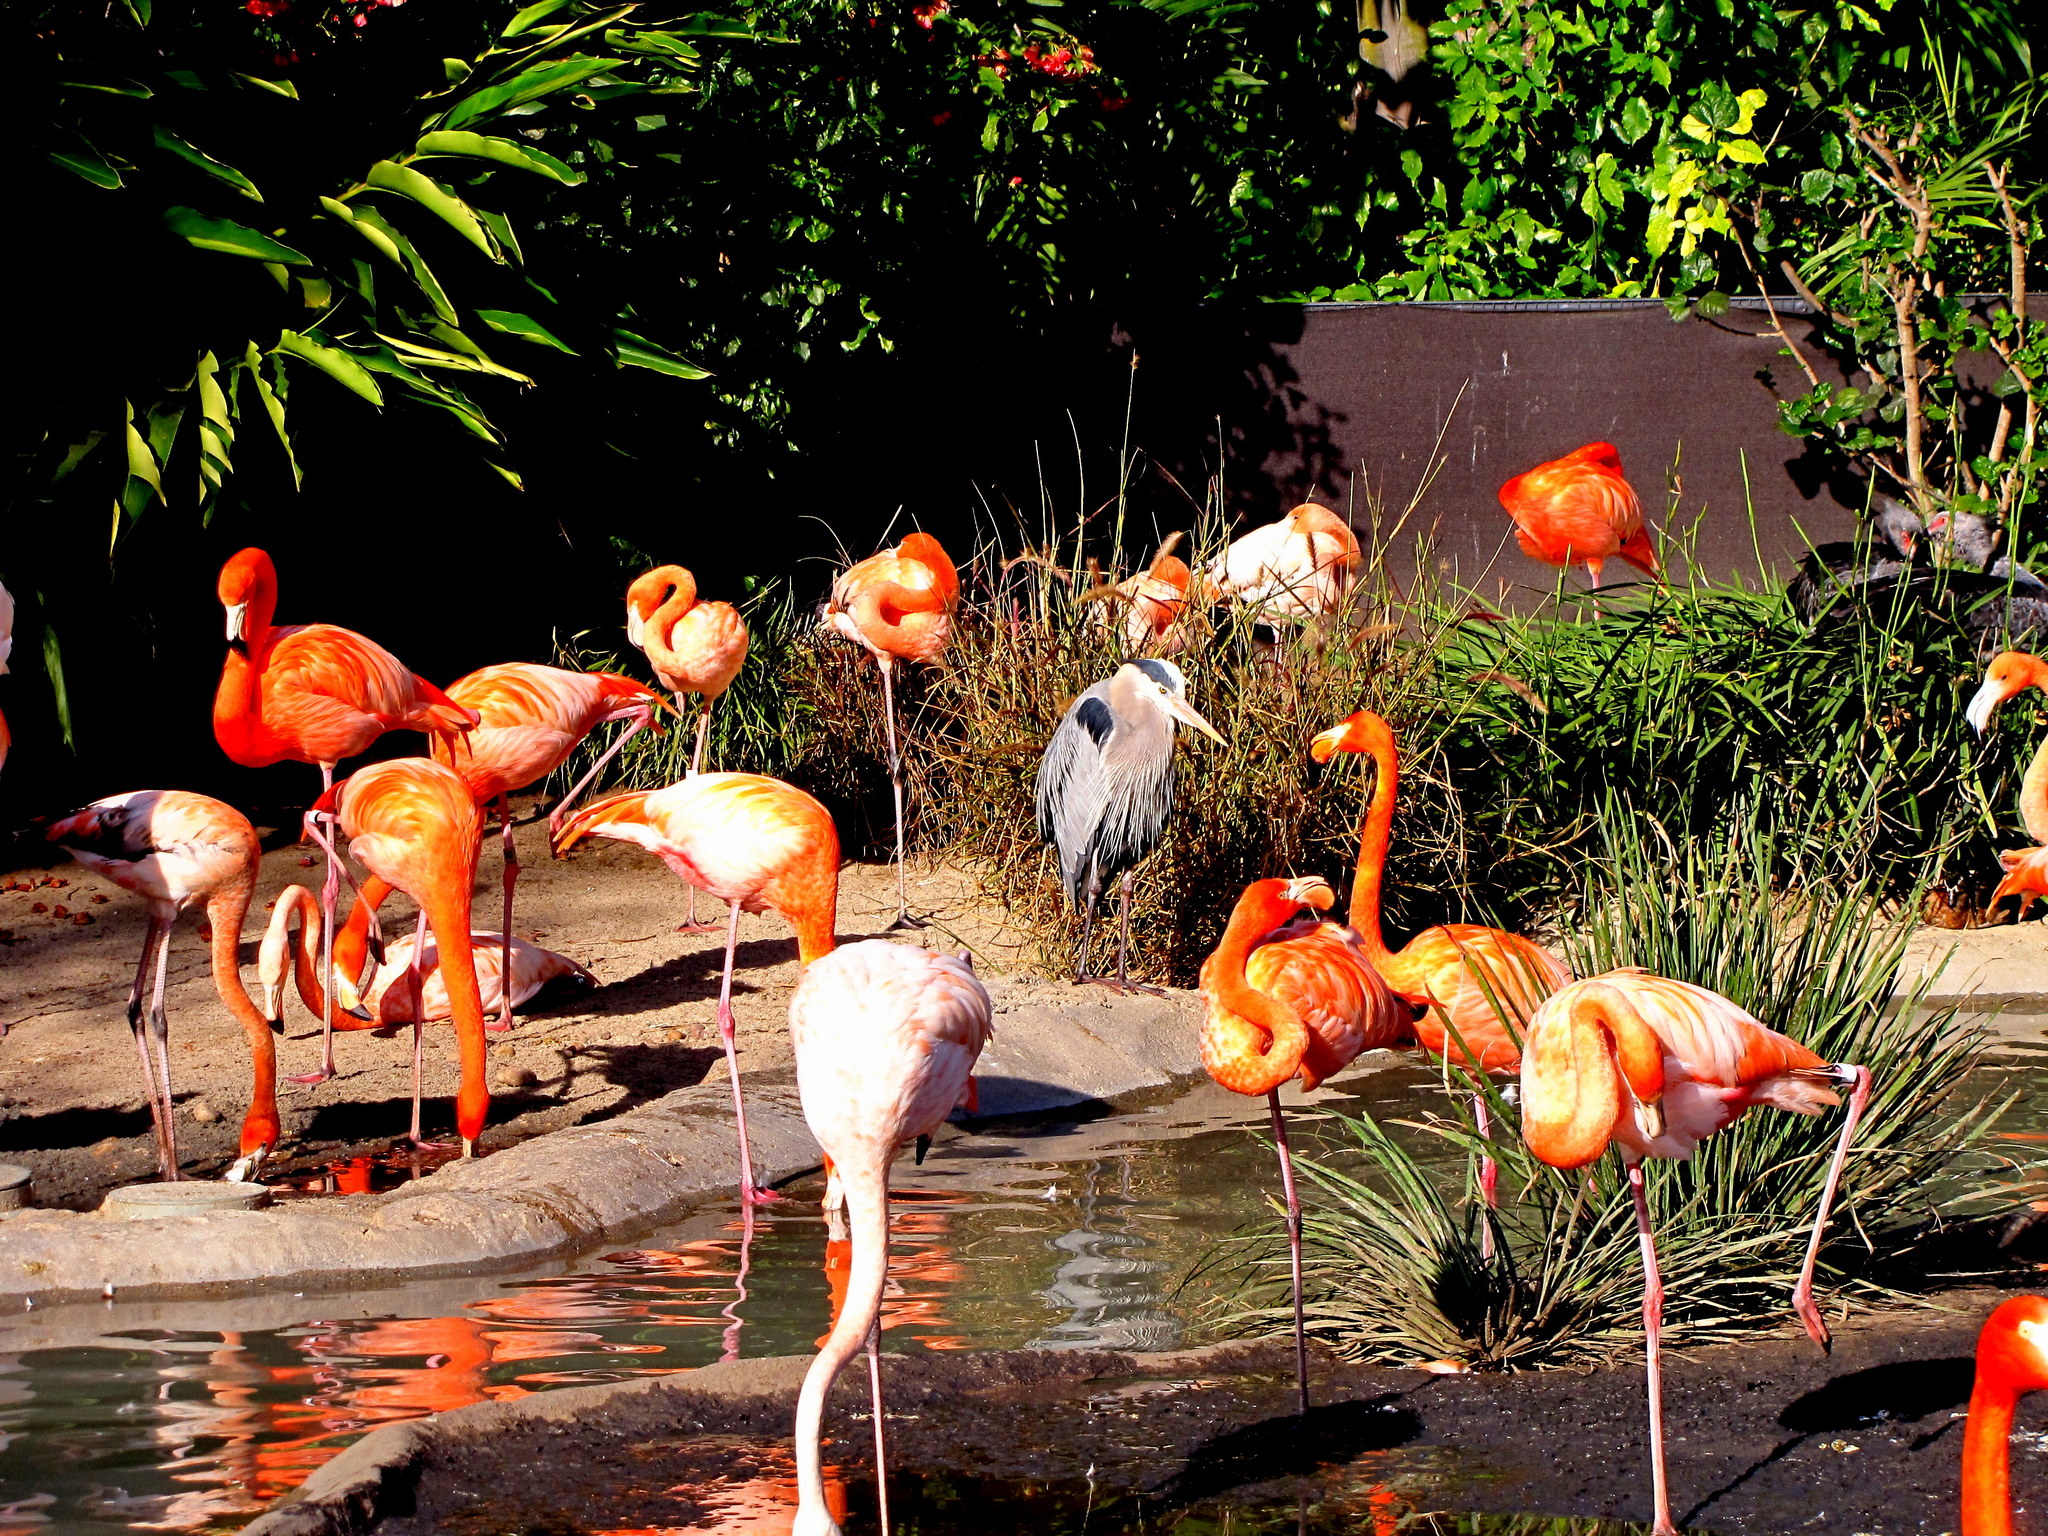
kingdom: Animalia
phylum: Chordata
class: Aves
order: Pelecaniformes
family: Ardeidae
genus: Ardea
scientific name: Ardea herodias
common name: Great blue heron
